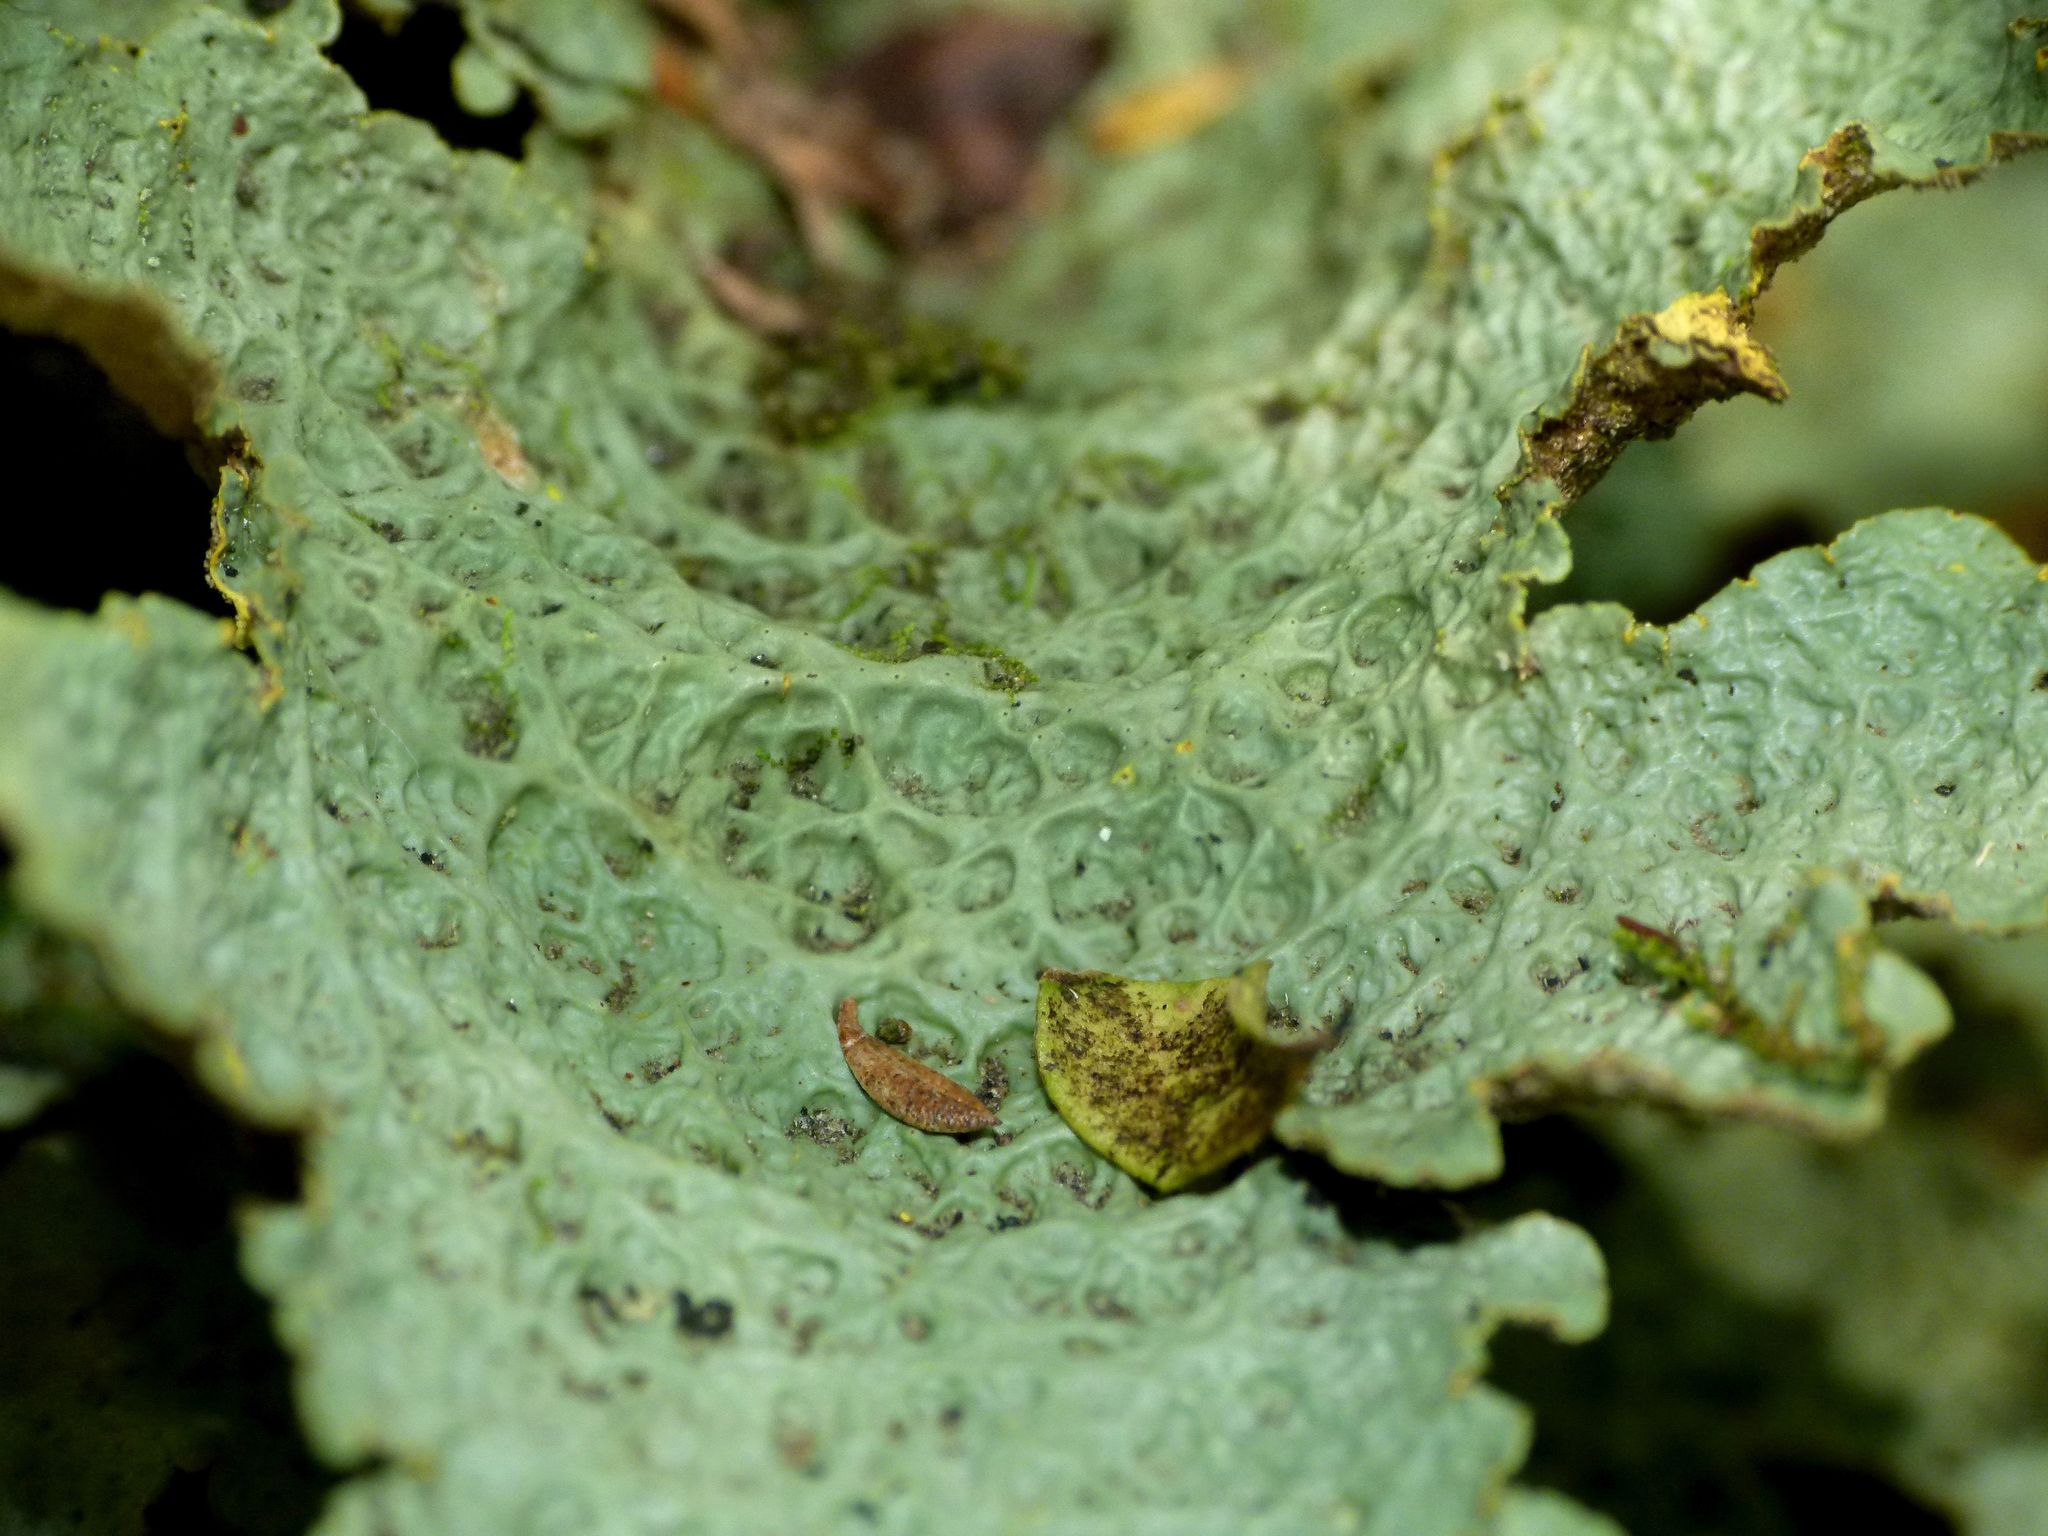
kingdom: Fungi
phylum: Ascomycota
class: Lecanoromycetes
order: Peltigerales
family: Lobariaceae
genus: Yarrumia
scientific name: Yarrumia coronata
